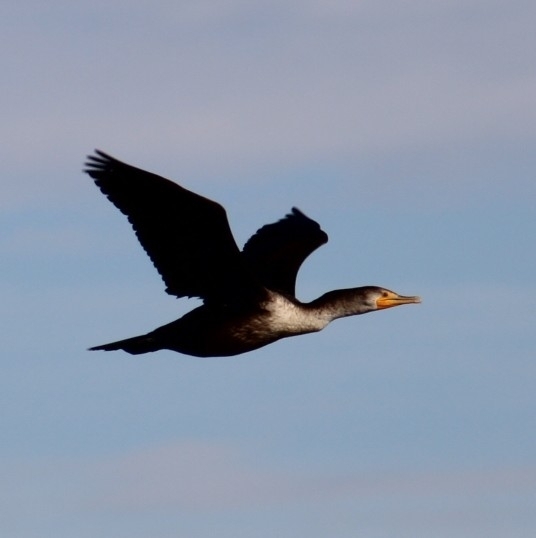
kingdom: Animalia
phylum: Chordata
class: Aves
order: Suliformes
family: Phalacrocoracidae
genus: Phalacrocorax
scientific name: Phalacrocorax auritus
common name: Double-crested cormorant
